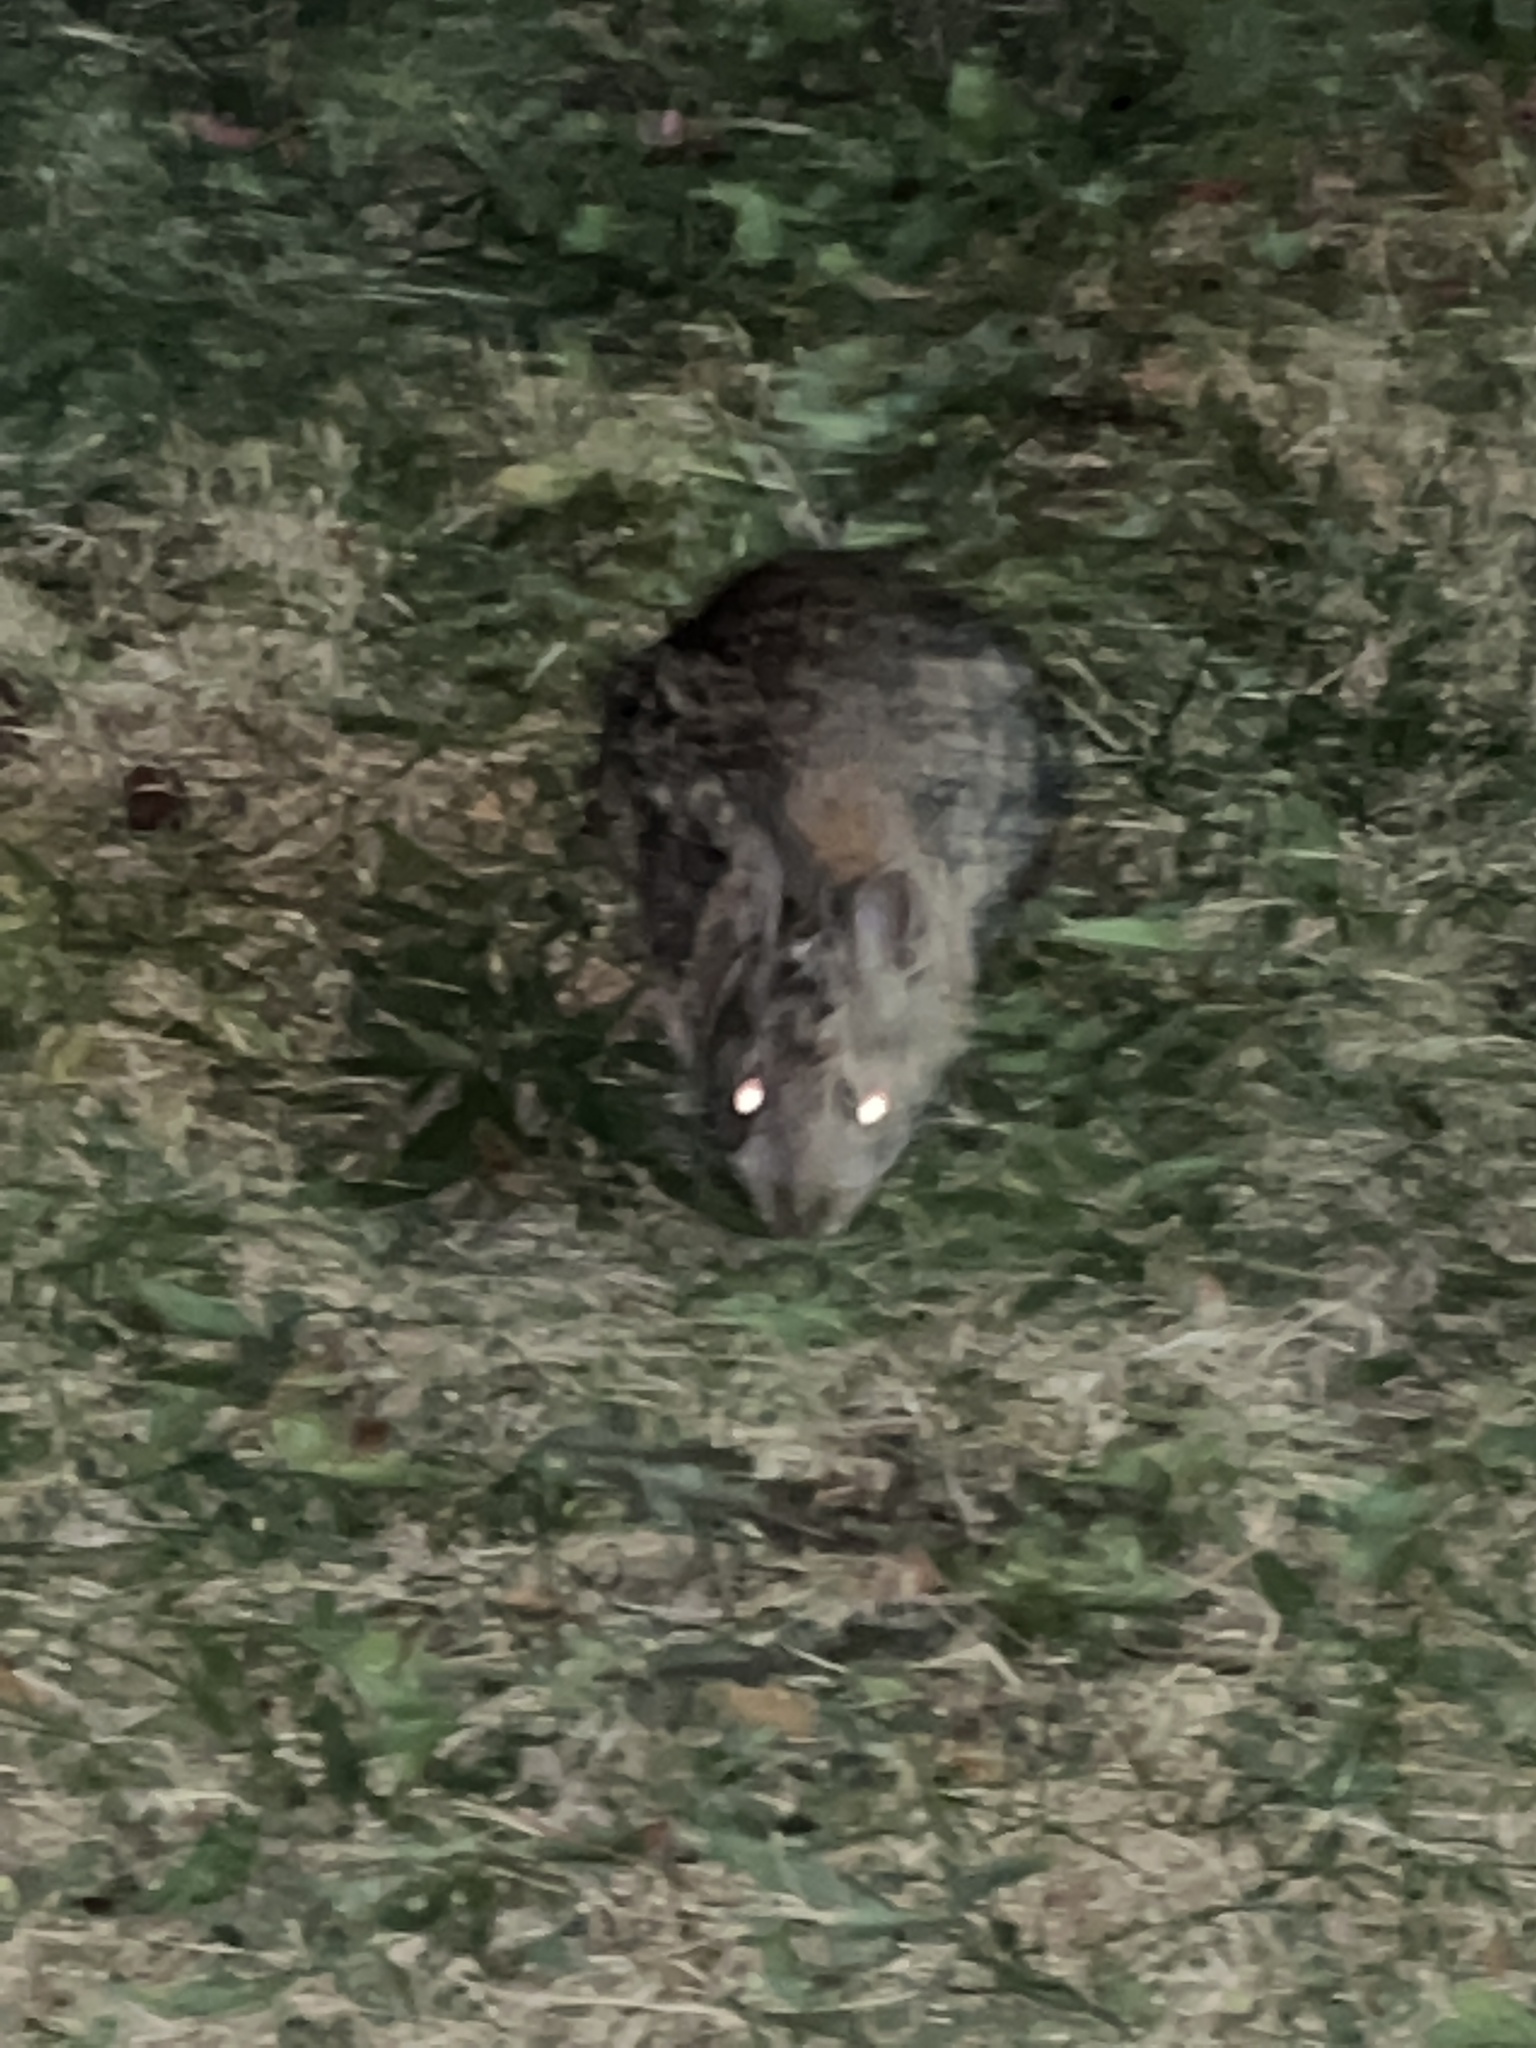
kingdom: Animalia
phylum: Chordata
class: Mammalia
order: Lagomorpha
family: Leporidae
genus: Sylvilagus
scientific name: Sylvilagus floridanus
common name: Eastern cottontail
